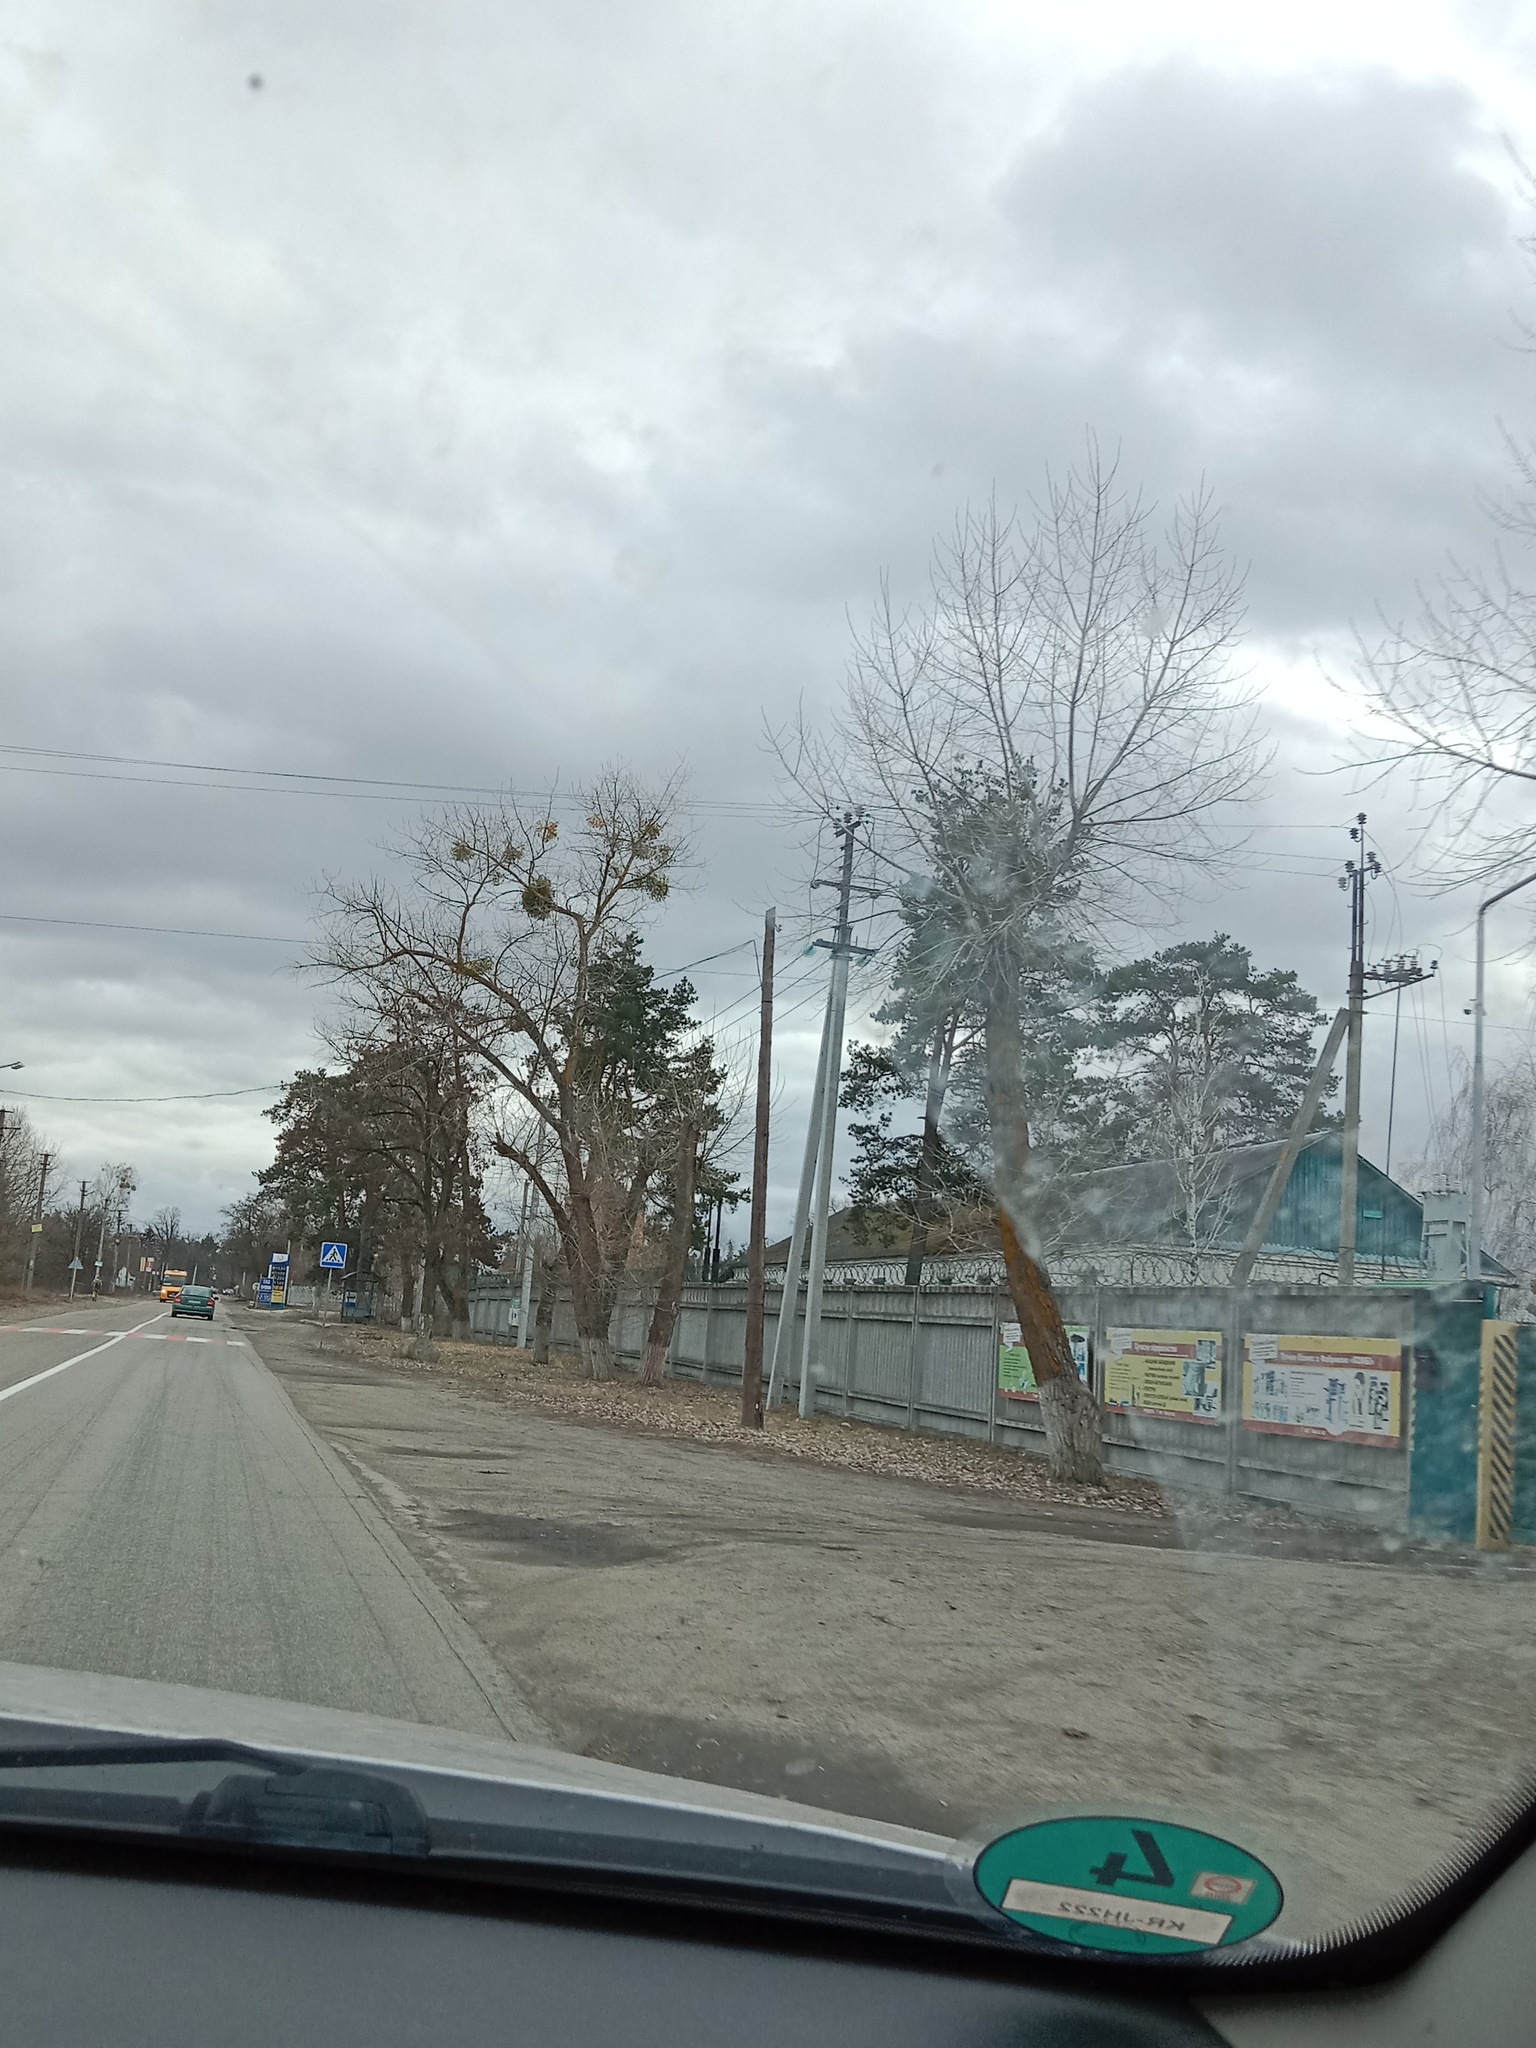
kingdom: Plantae
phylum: Tracheophyta
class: Magnoliopsida
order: Santalales
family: Viscaceae
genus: Viscum
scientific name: Viscum album
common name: Mistletoe
